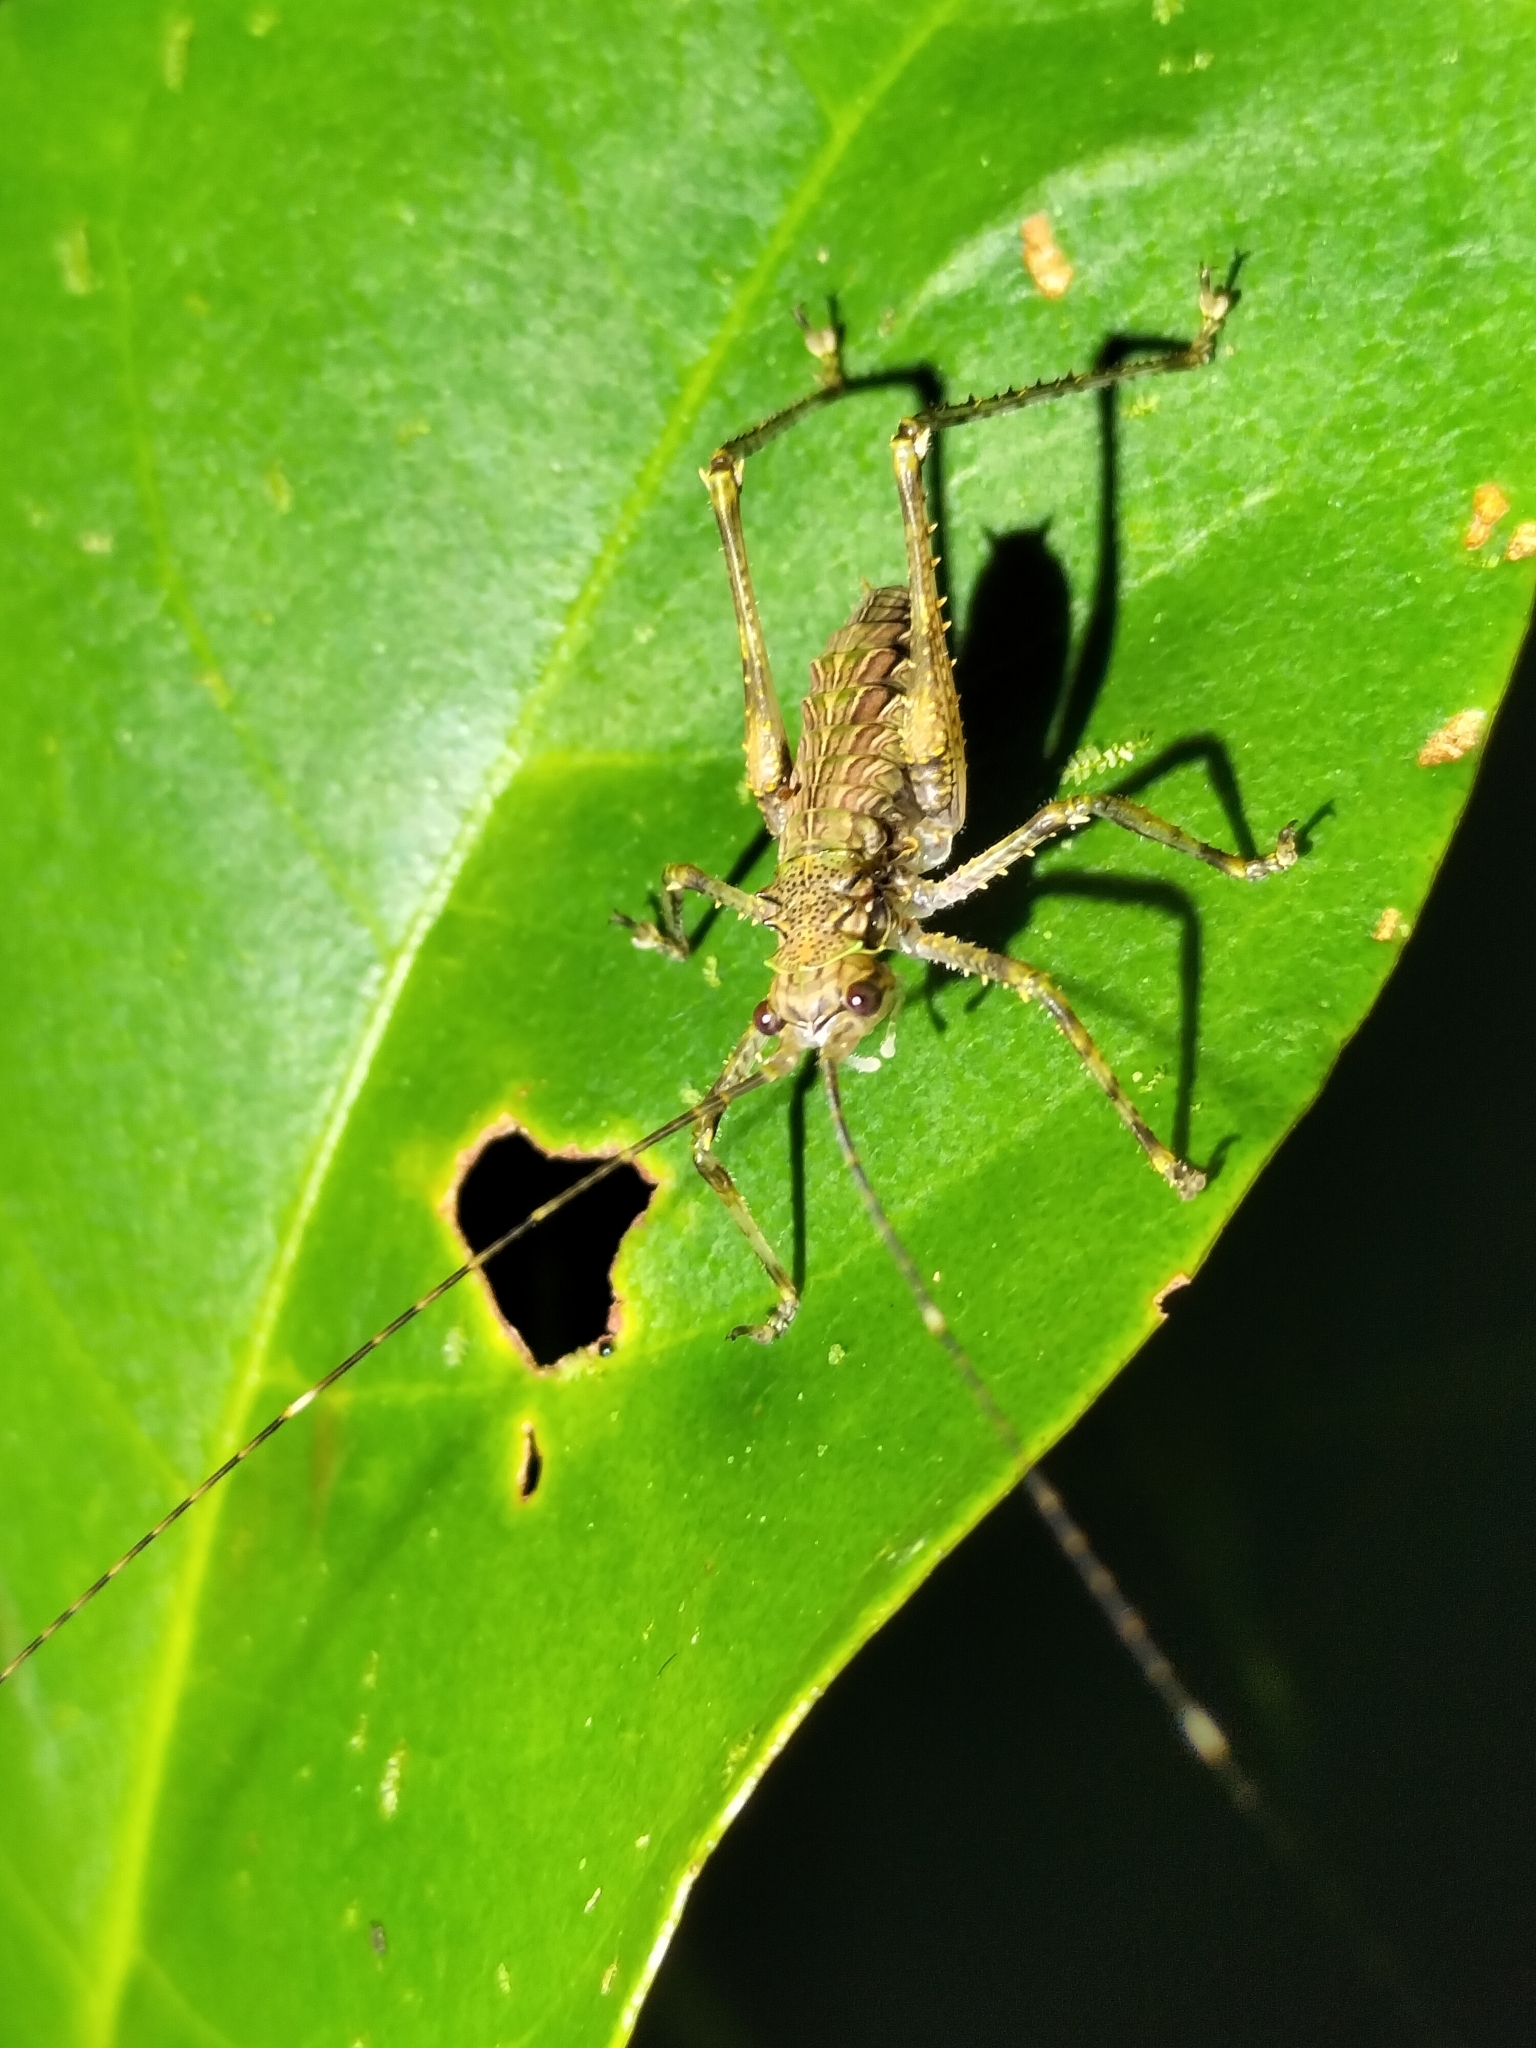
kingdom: Animalia
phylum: Arthropoda
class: Insecta
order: Orthoptera
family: Tettigoniidae
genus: Phricta
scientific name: Phricta spinosa
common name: Giant spiny forest katydid
